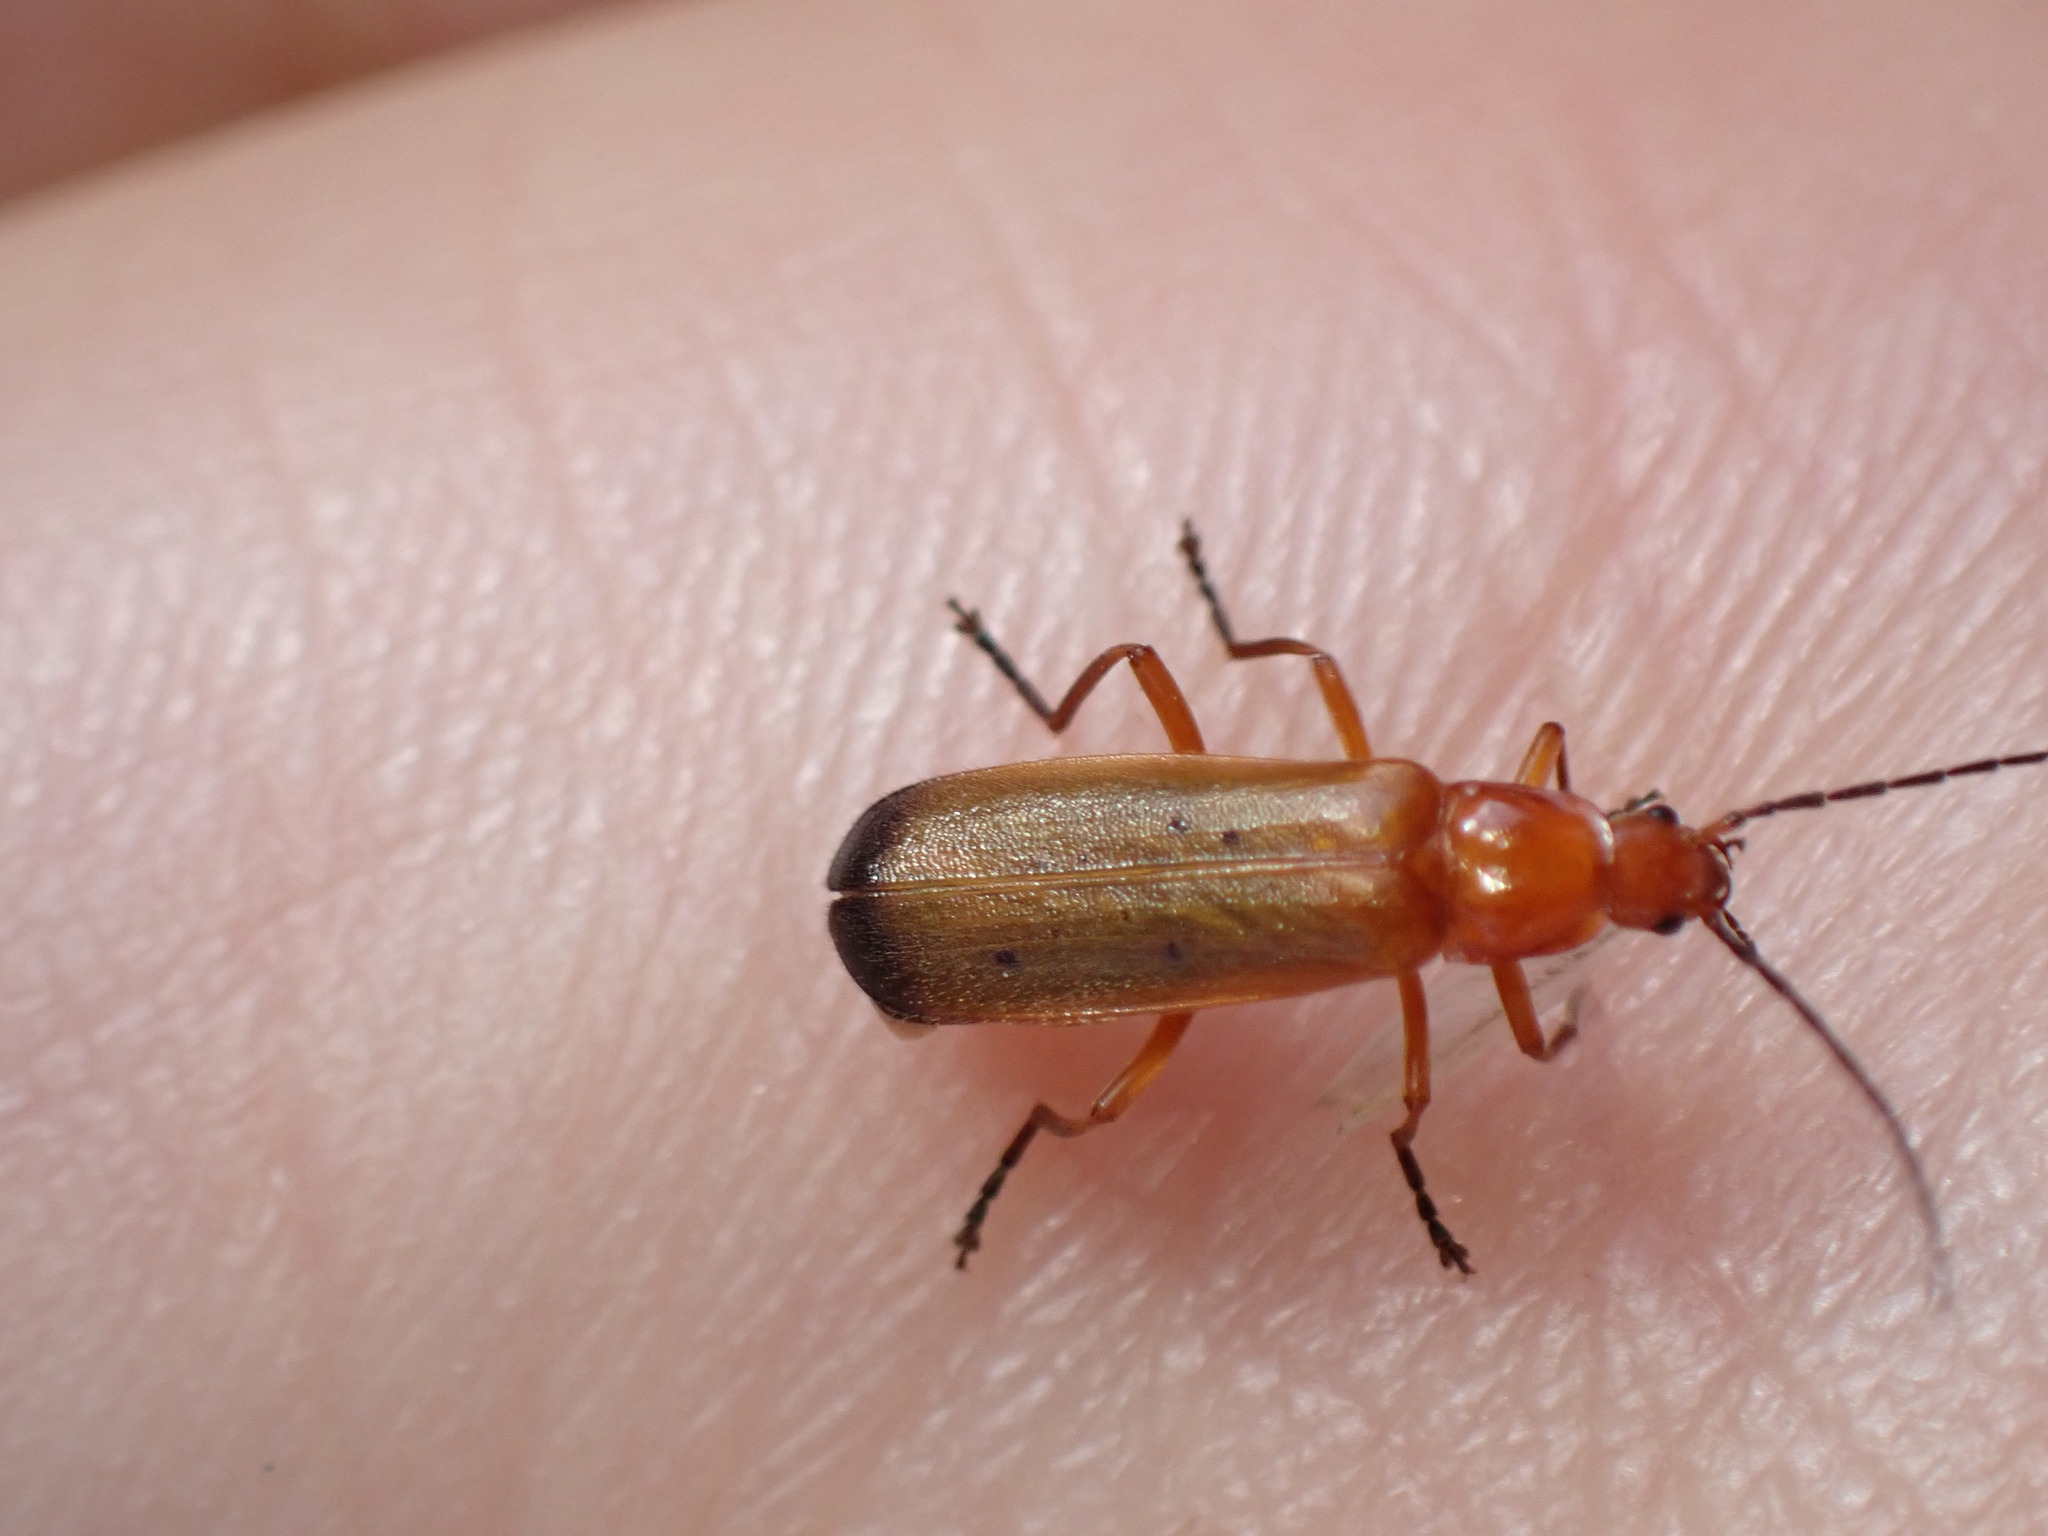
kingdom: Animalia
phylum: Arthropoda
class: Insecta
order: Coleoptera
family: Cantharidae
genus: Rhagonycha
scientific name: Rhagonycha fulva
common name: Common red soldier beetle
